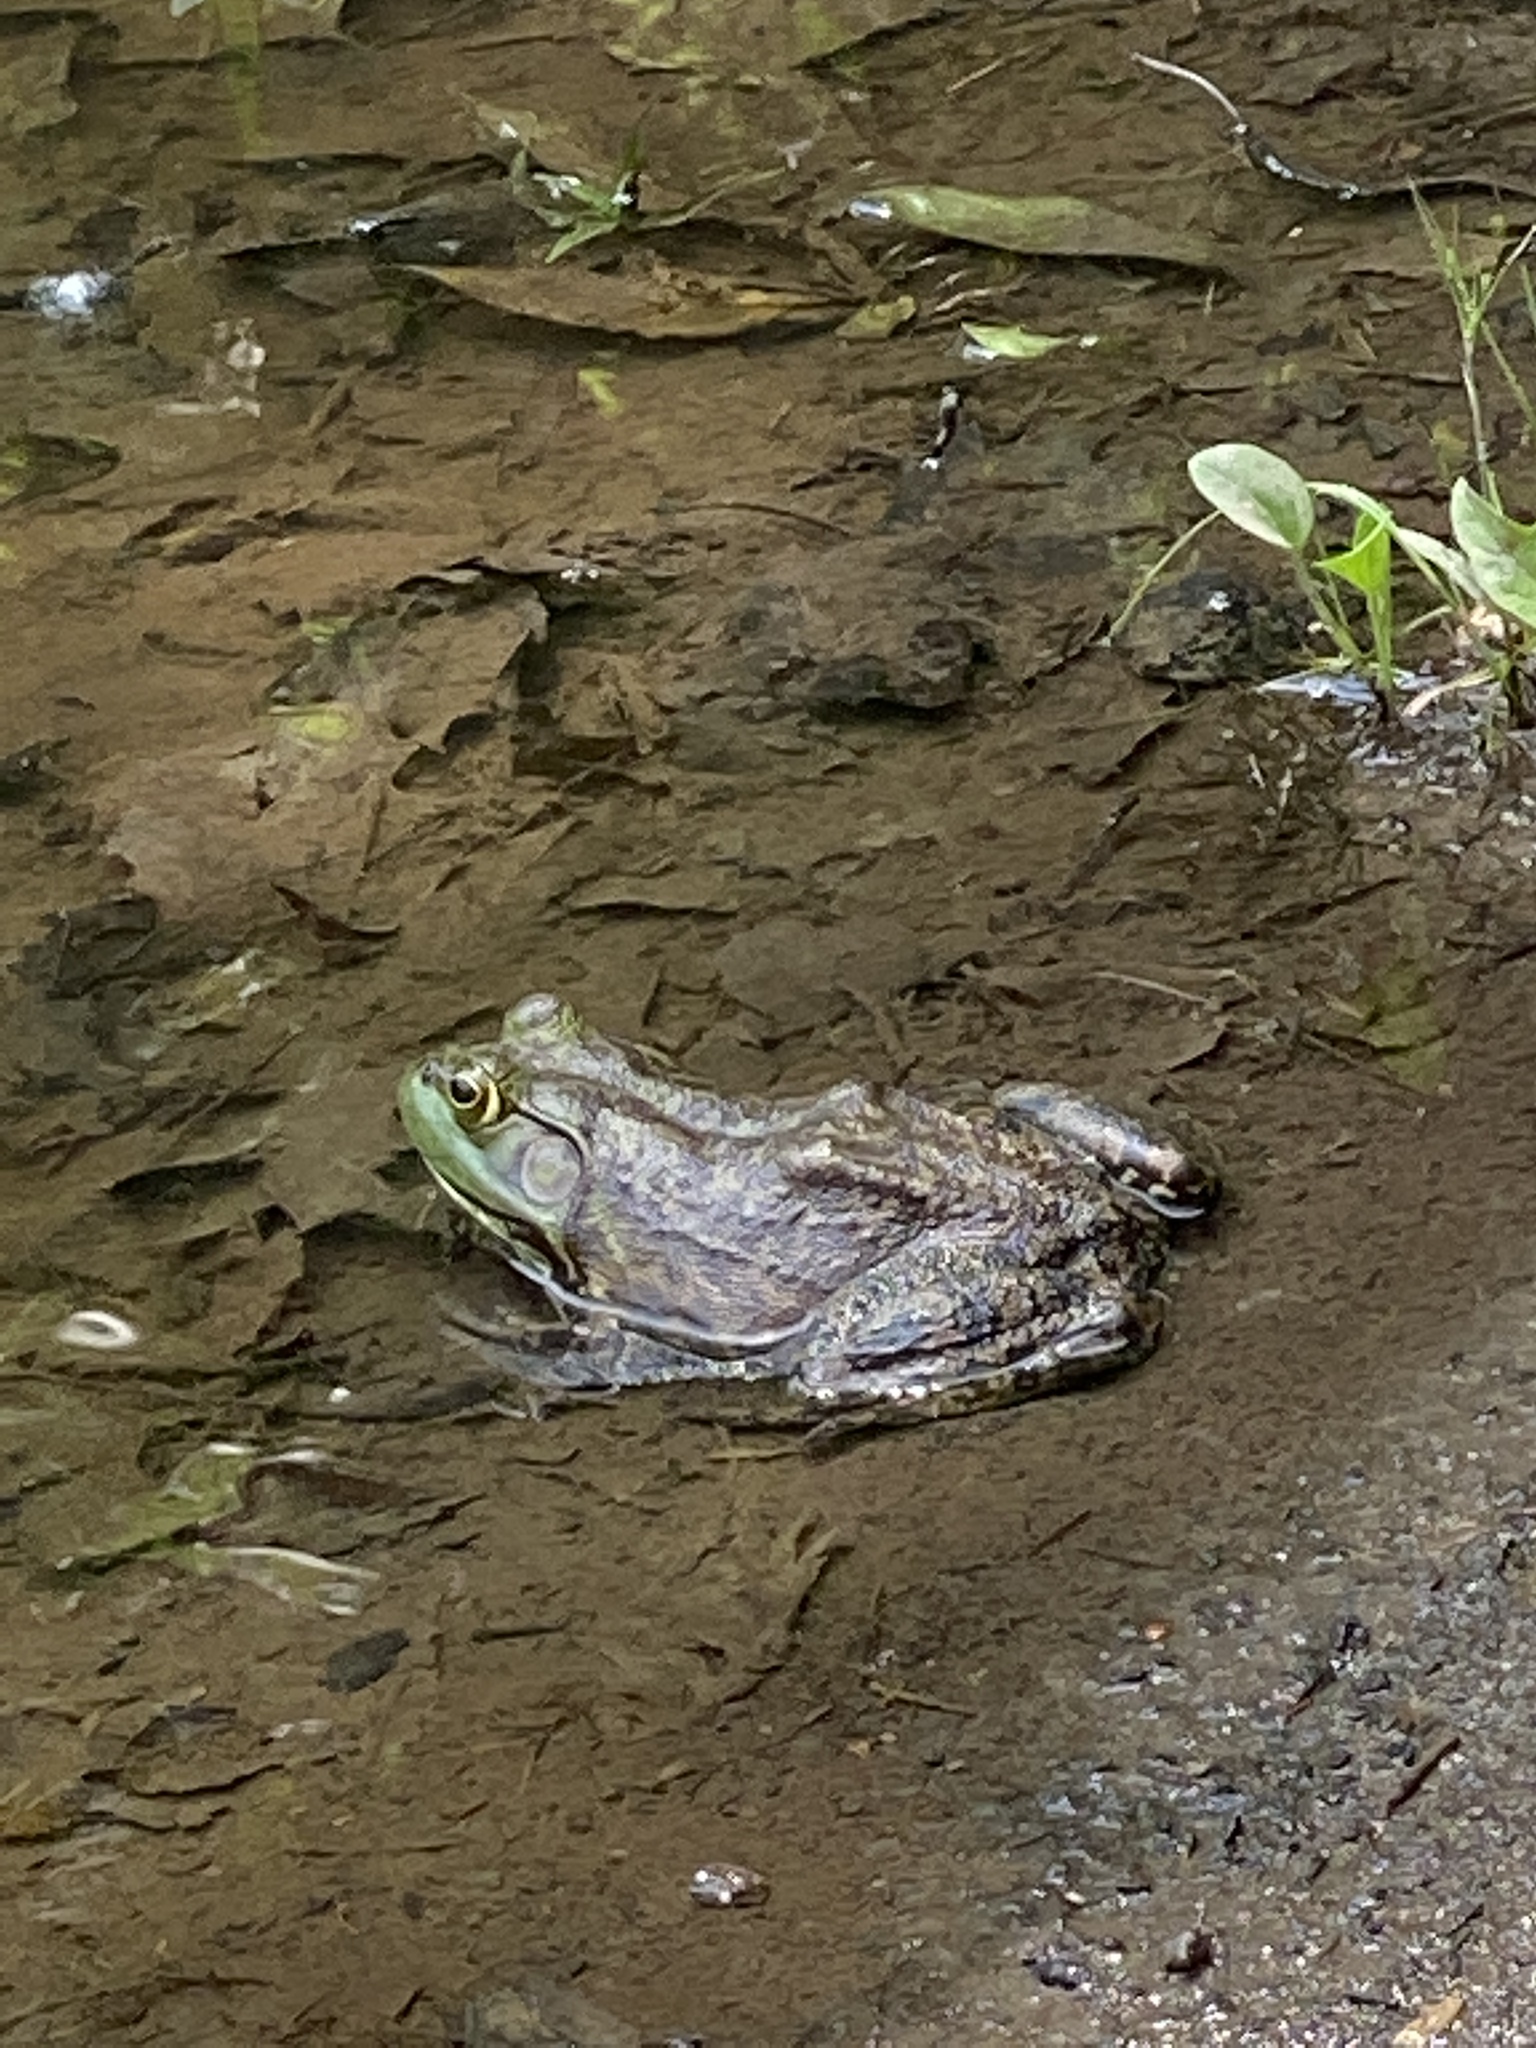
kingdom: Animalia
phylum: Chordata
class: Amphibia
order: Anura
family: Ranidae
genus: Lithobates
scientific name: Lithobates catesbeianus
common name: American bullfrog
